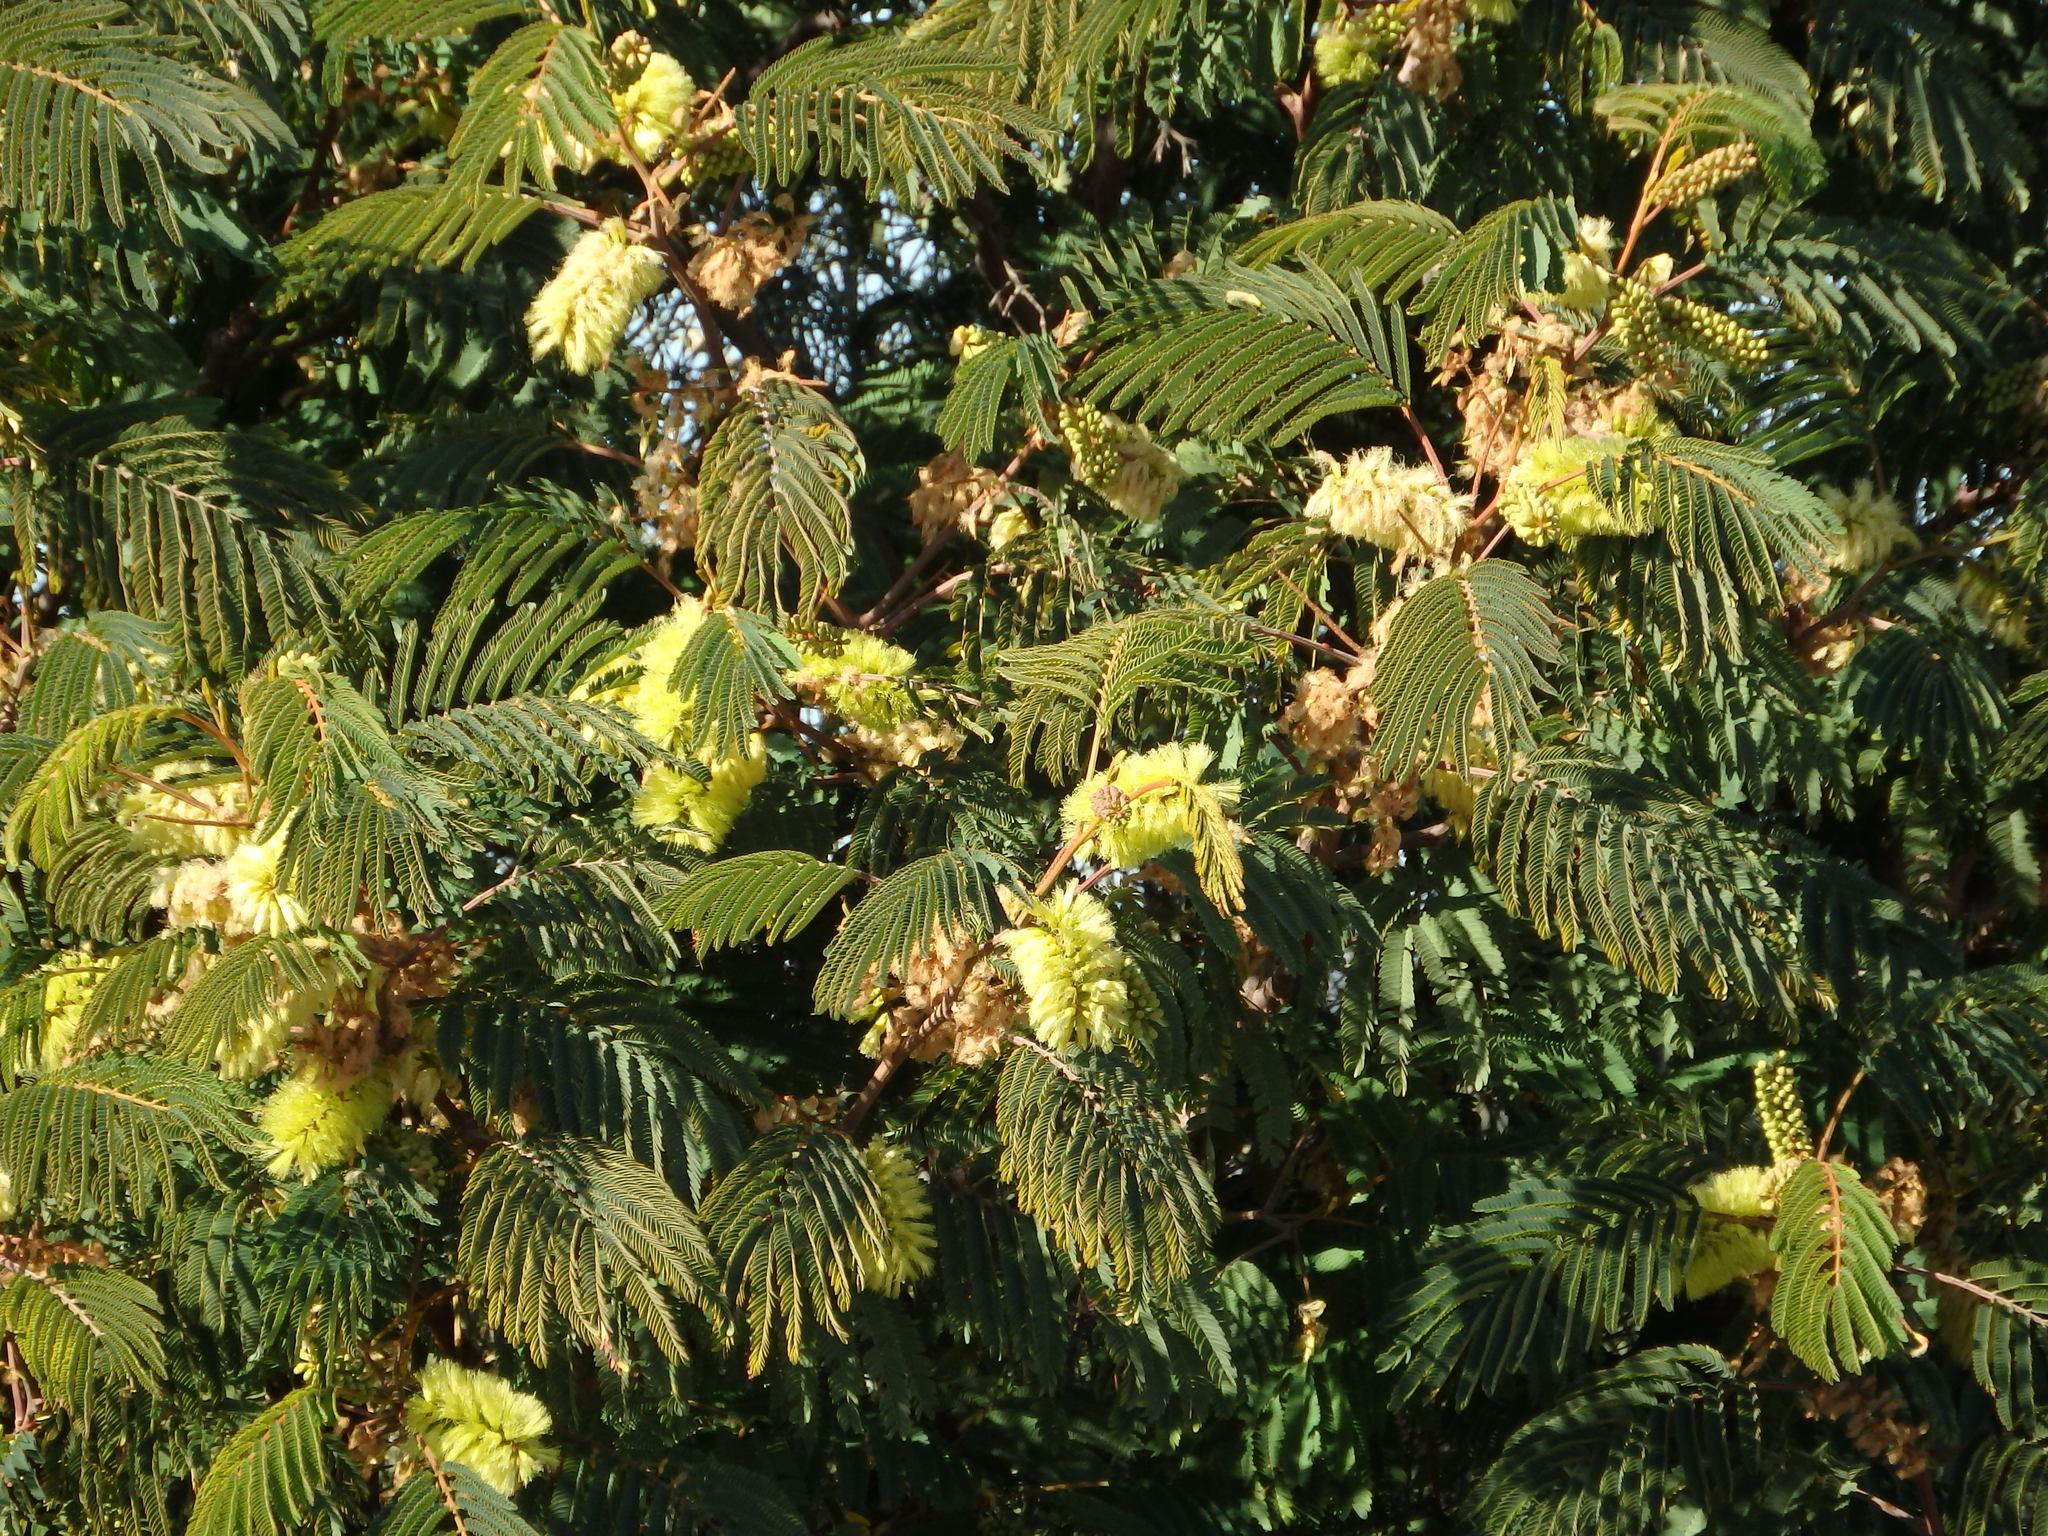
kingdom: Plantae
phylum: Tracheophyta
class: Magnoliopsida
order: Fabales
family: Fabaceae
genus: Paraserianthes
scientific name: Paraserianthes lophantha
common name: Plume albizia
